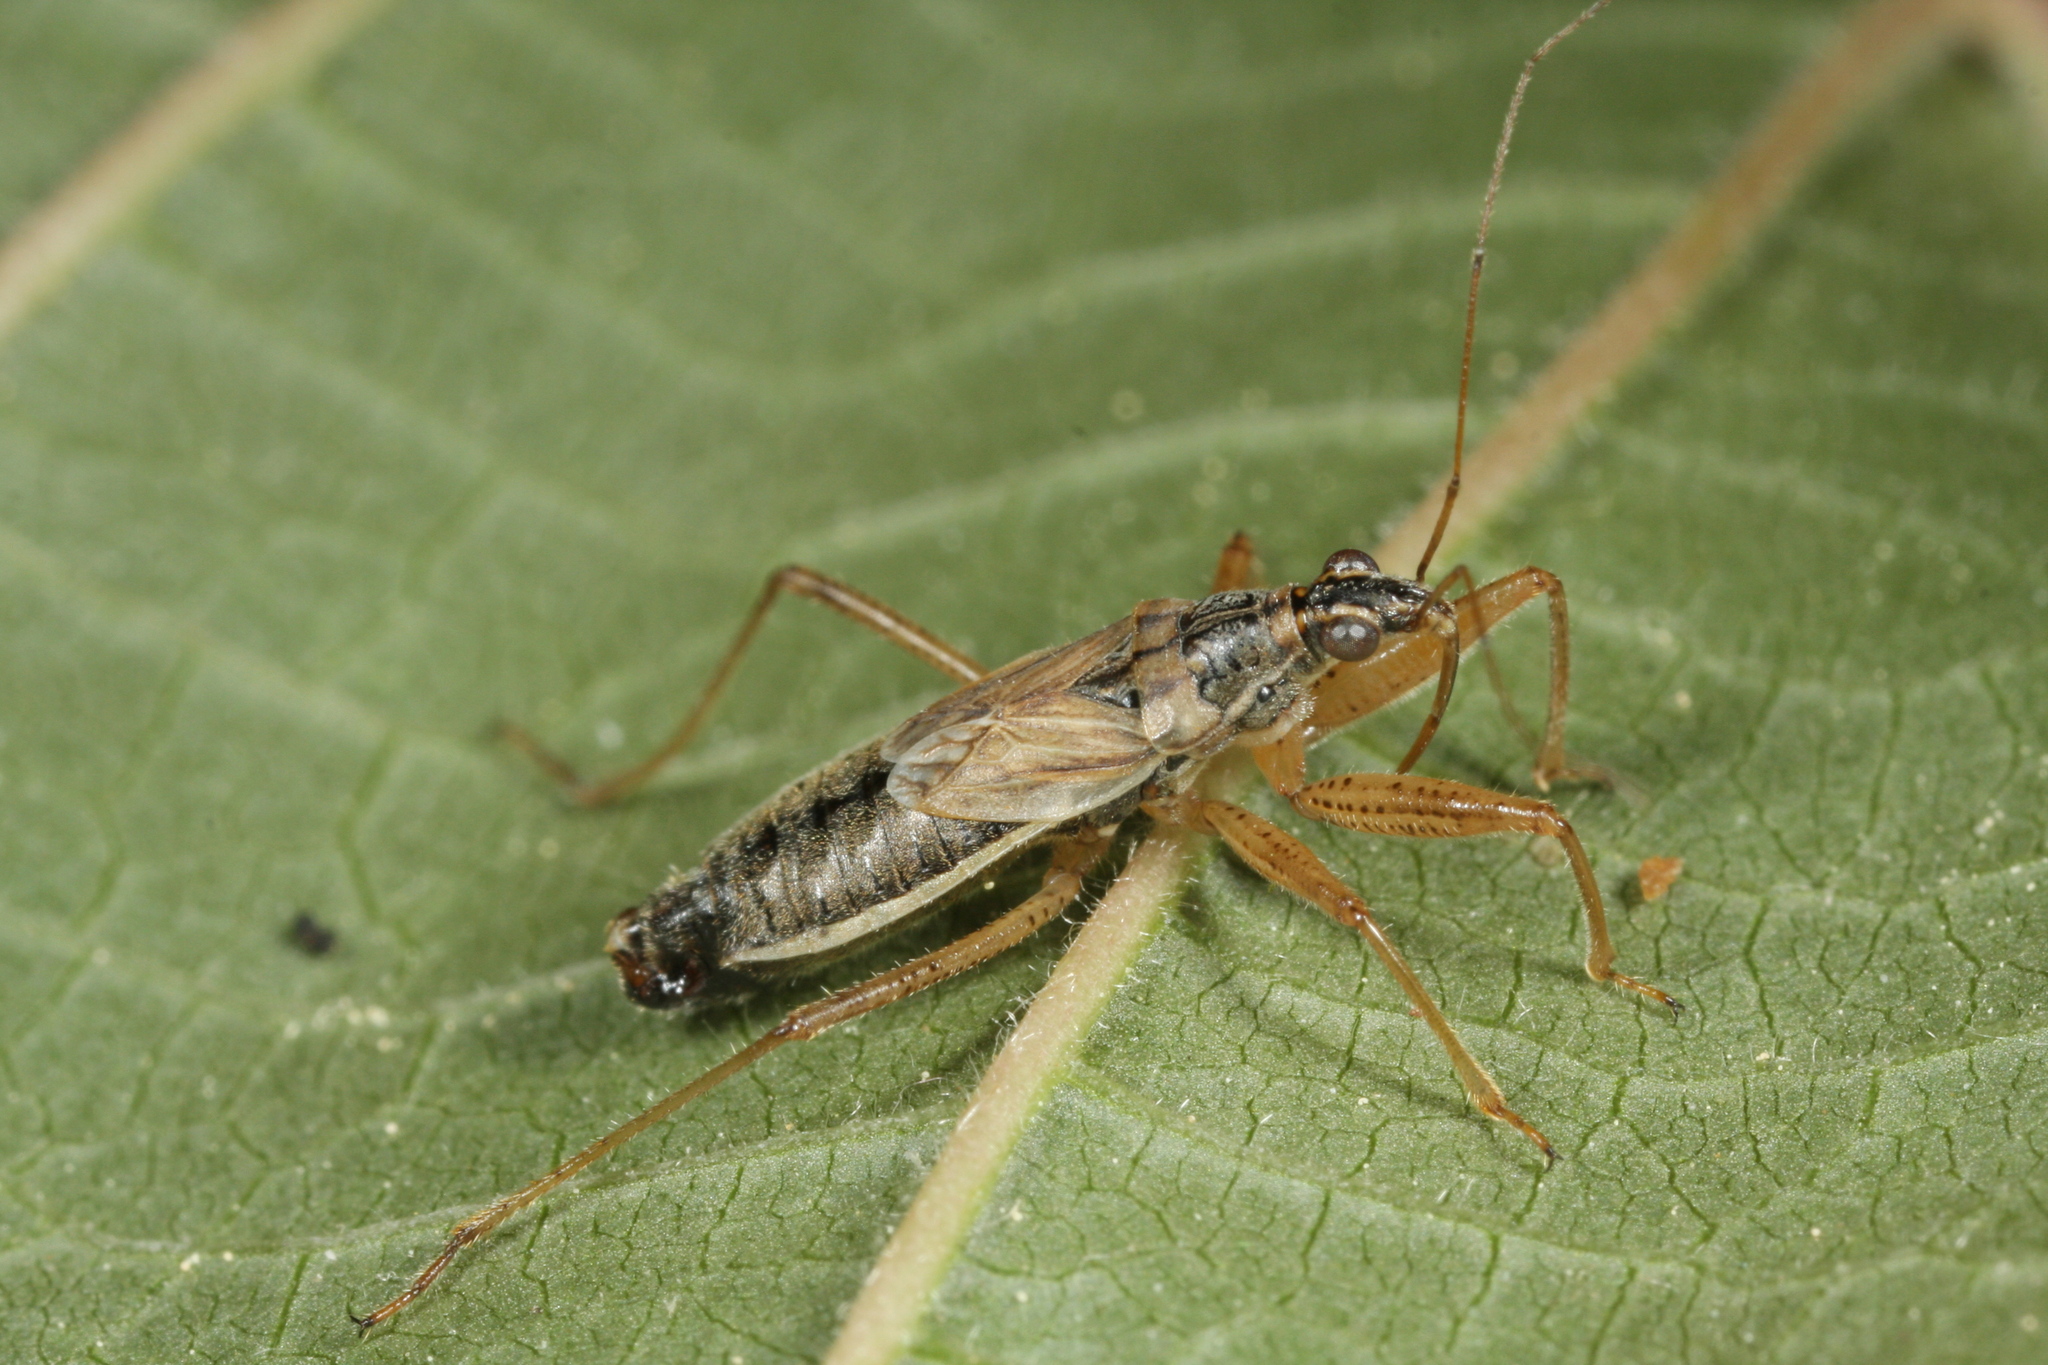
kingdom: Animalia
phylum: Arthropoda
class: Insecta
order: Hemiptera
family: Nabidae
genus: Nabis
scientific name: Nabis flavomarginatus
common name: Broad damselbug
